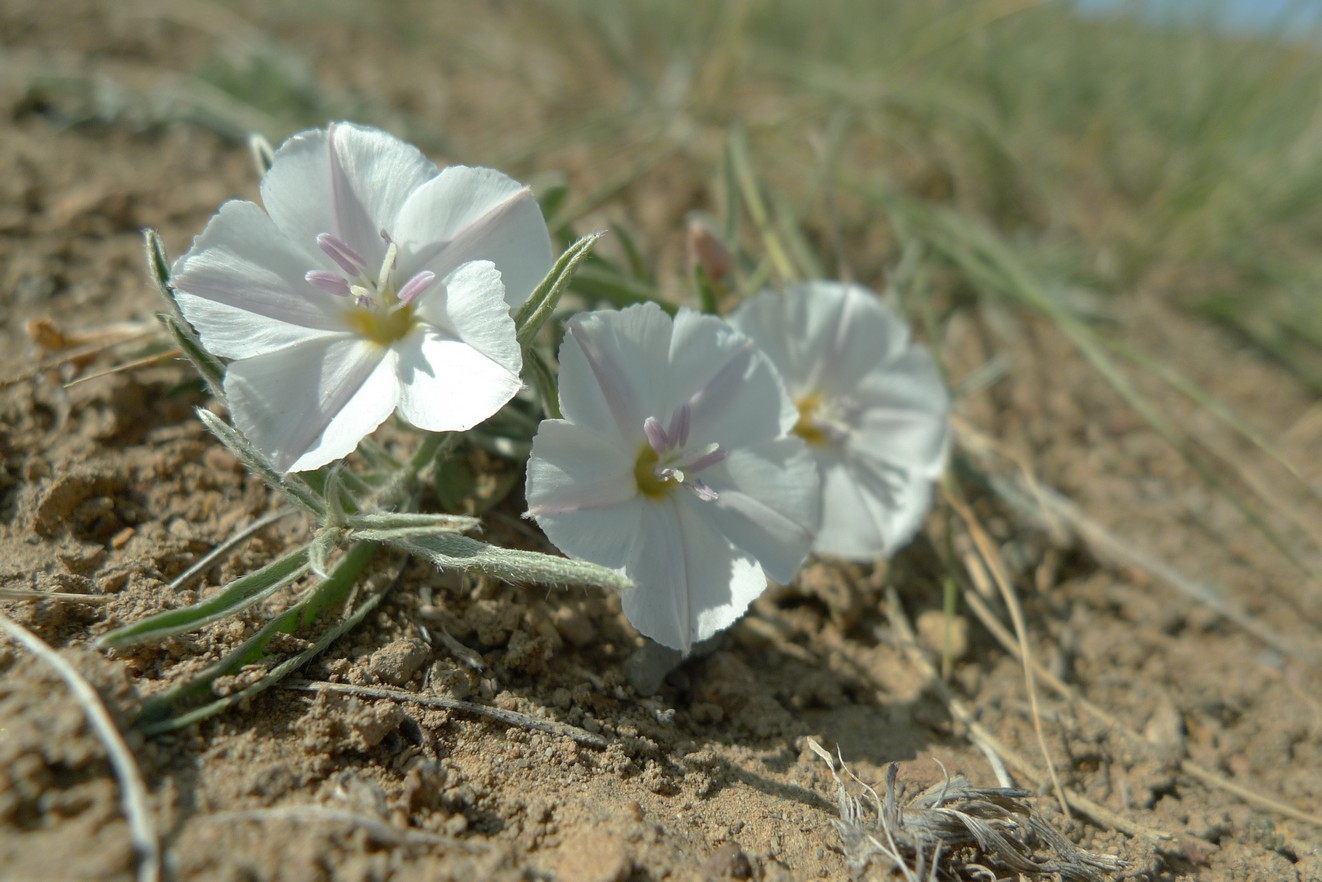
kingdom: Plantae
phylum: Tracheophyta
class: Magnoliopsida
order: Solanales
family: Convolvulaceae
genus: Convolvulus
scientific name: Convolvulus ammannii
